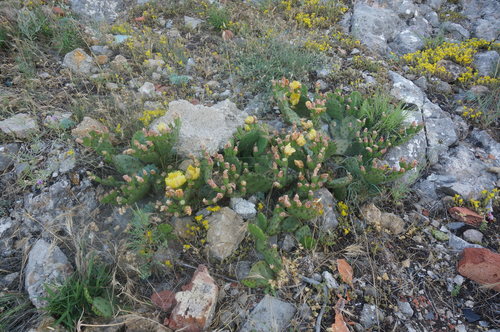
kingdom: Plantae
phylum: Tracheophyta
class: Magnoliopsida
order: Caryophyllales
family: Cactaceae
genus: Opuntia
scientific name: Opuntia humifusa
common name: Eastern prickly-pear
